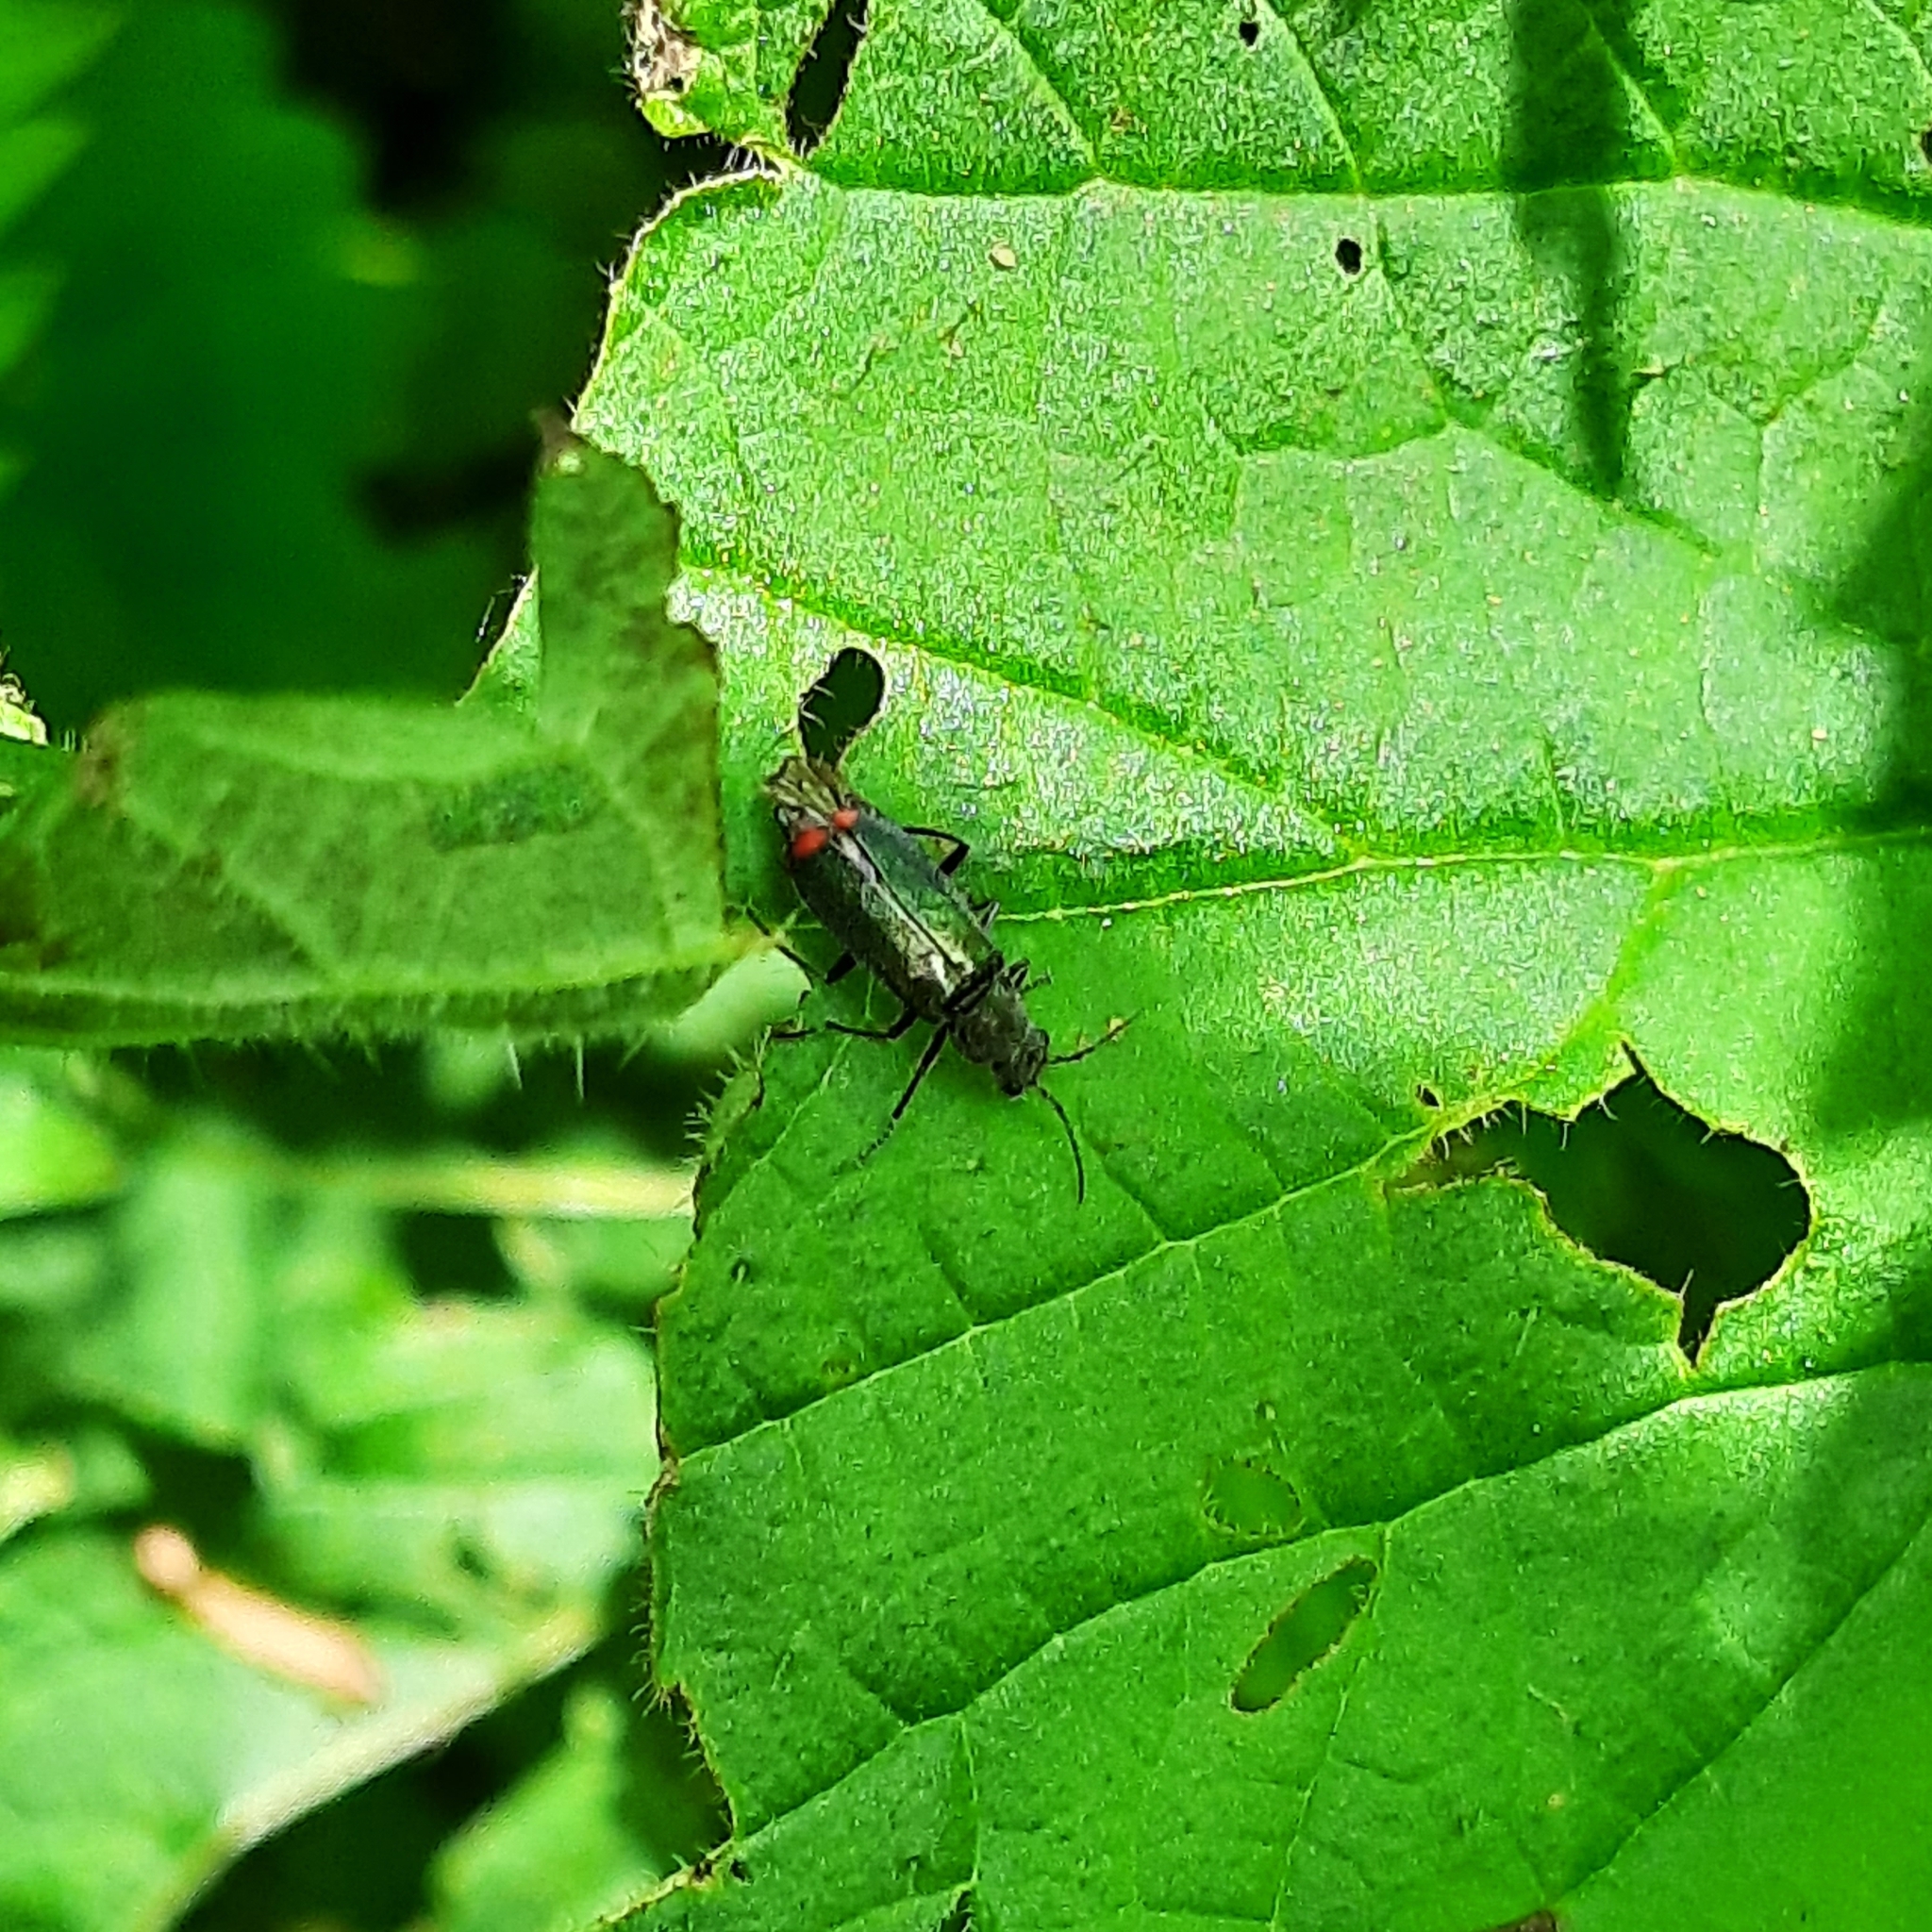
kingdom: Animalia
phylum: Arthropoda
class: Insecta
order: Coleoptera
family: Melyridae
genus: Malachius
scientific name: Malachius bipustulatus
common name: Malachite beetle
